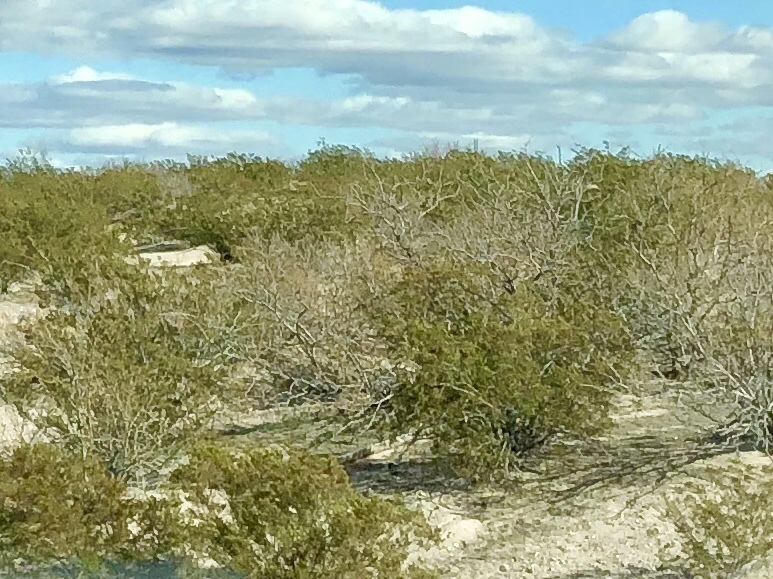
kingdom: Plantae
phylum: Tracheophyta
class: Magnoliopsida
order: Zygophyllales
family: Zygophyllaceae
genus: Larrea
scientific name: Larrea tridentata
